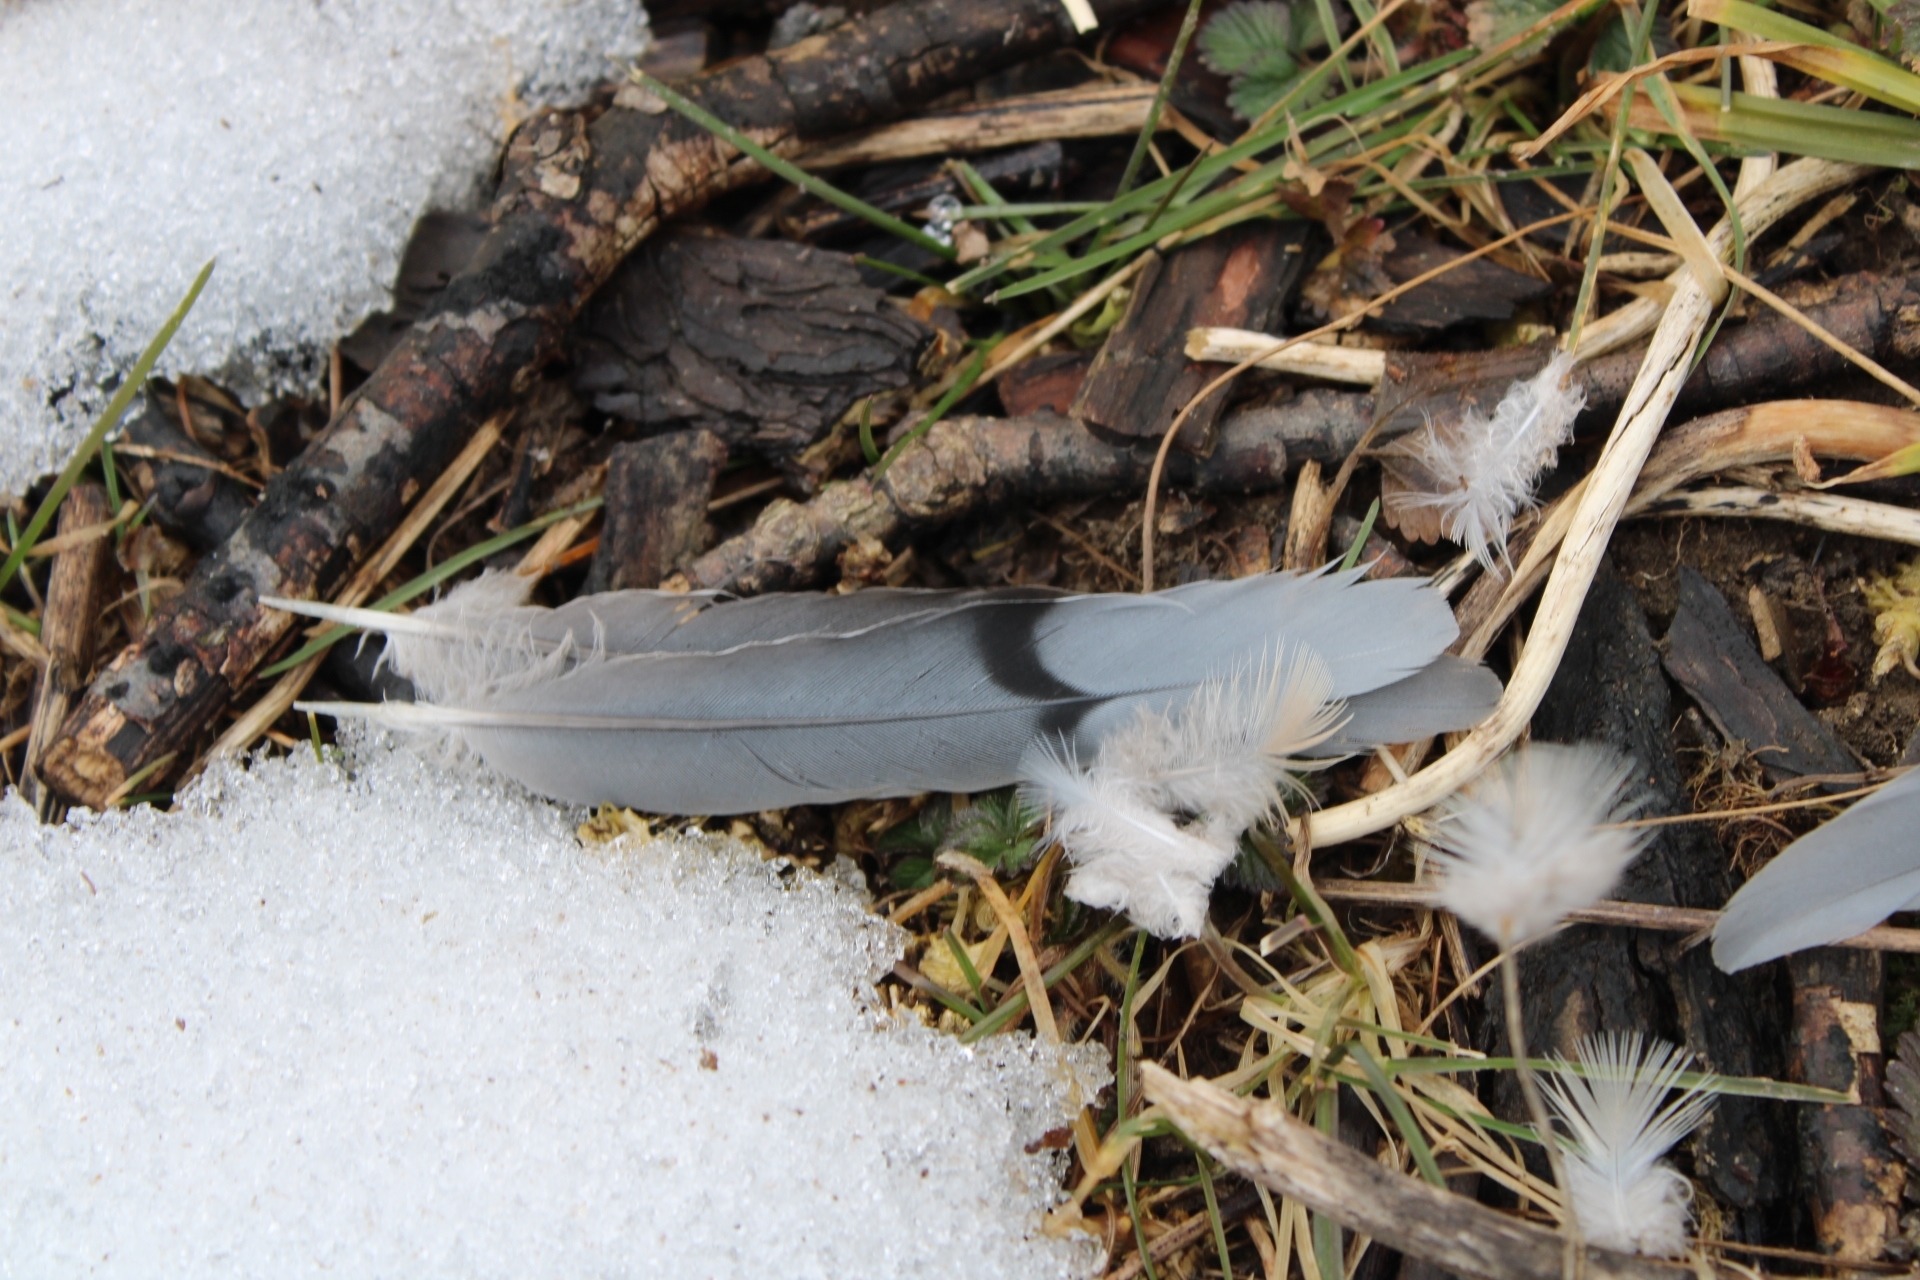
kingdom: Animalia
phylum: Chordata
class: Aves
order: Columbiformes
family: Columbidae
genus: Zenaida
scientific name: Zenaida macroura
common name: Mourning dove
